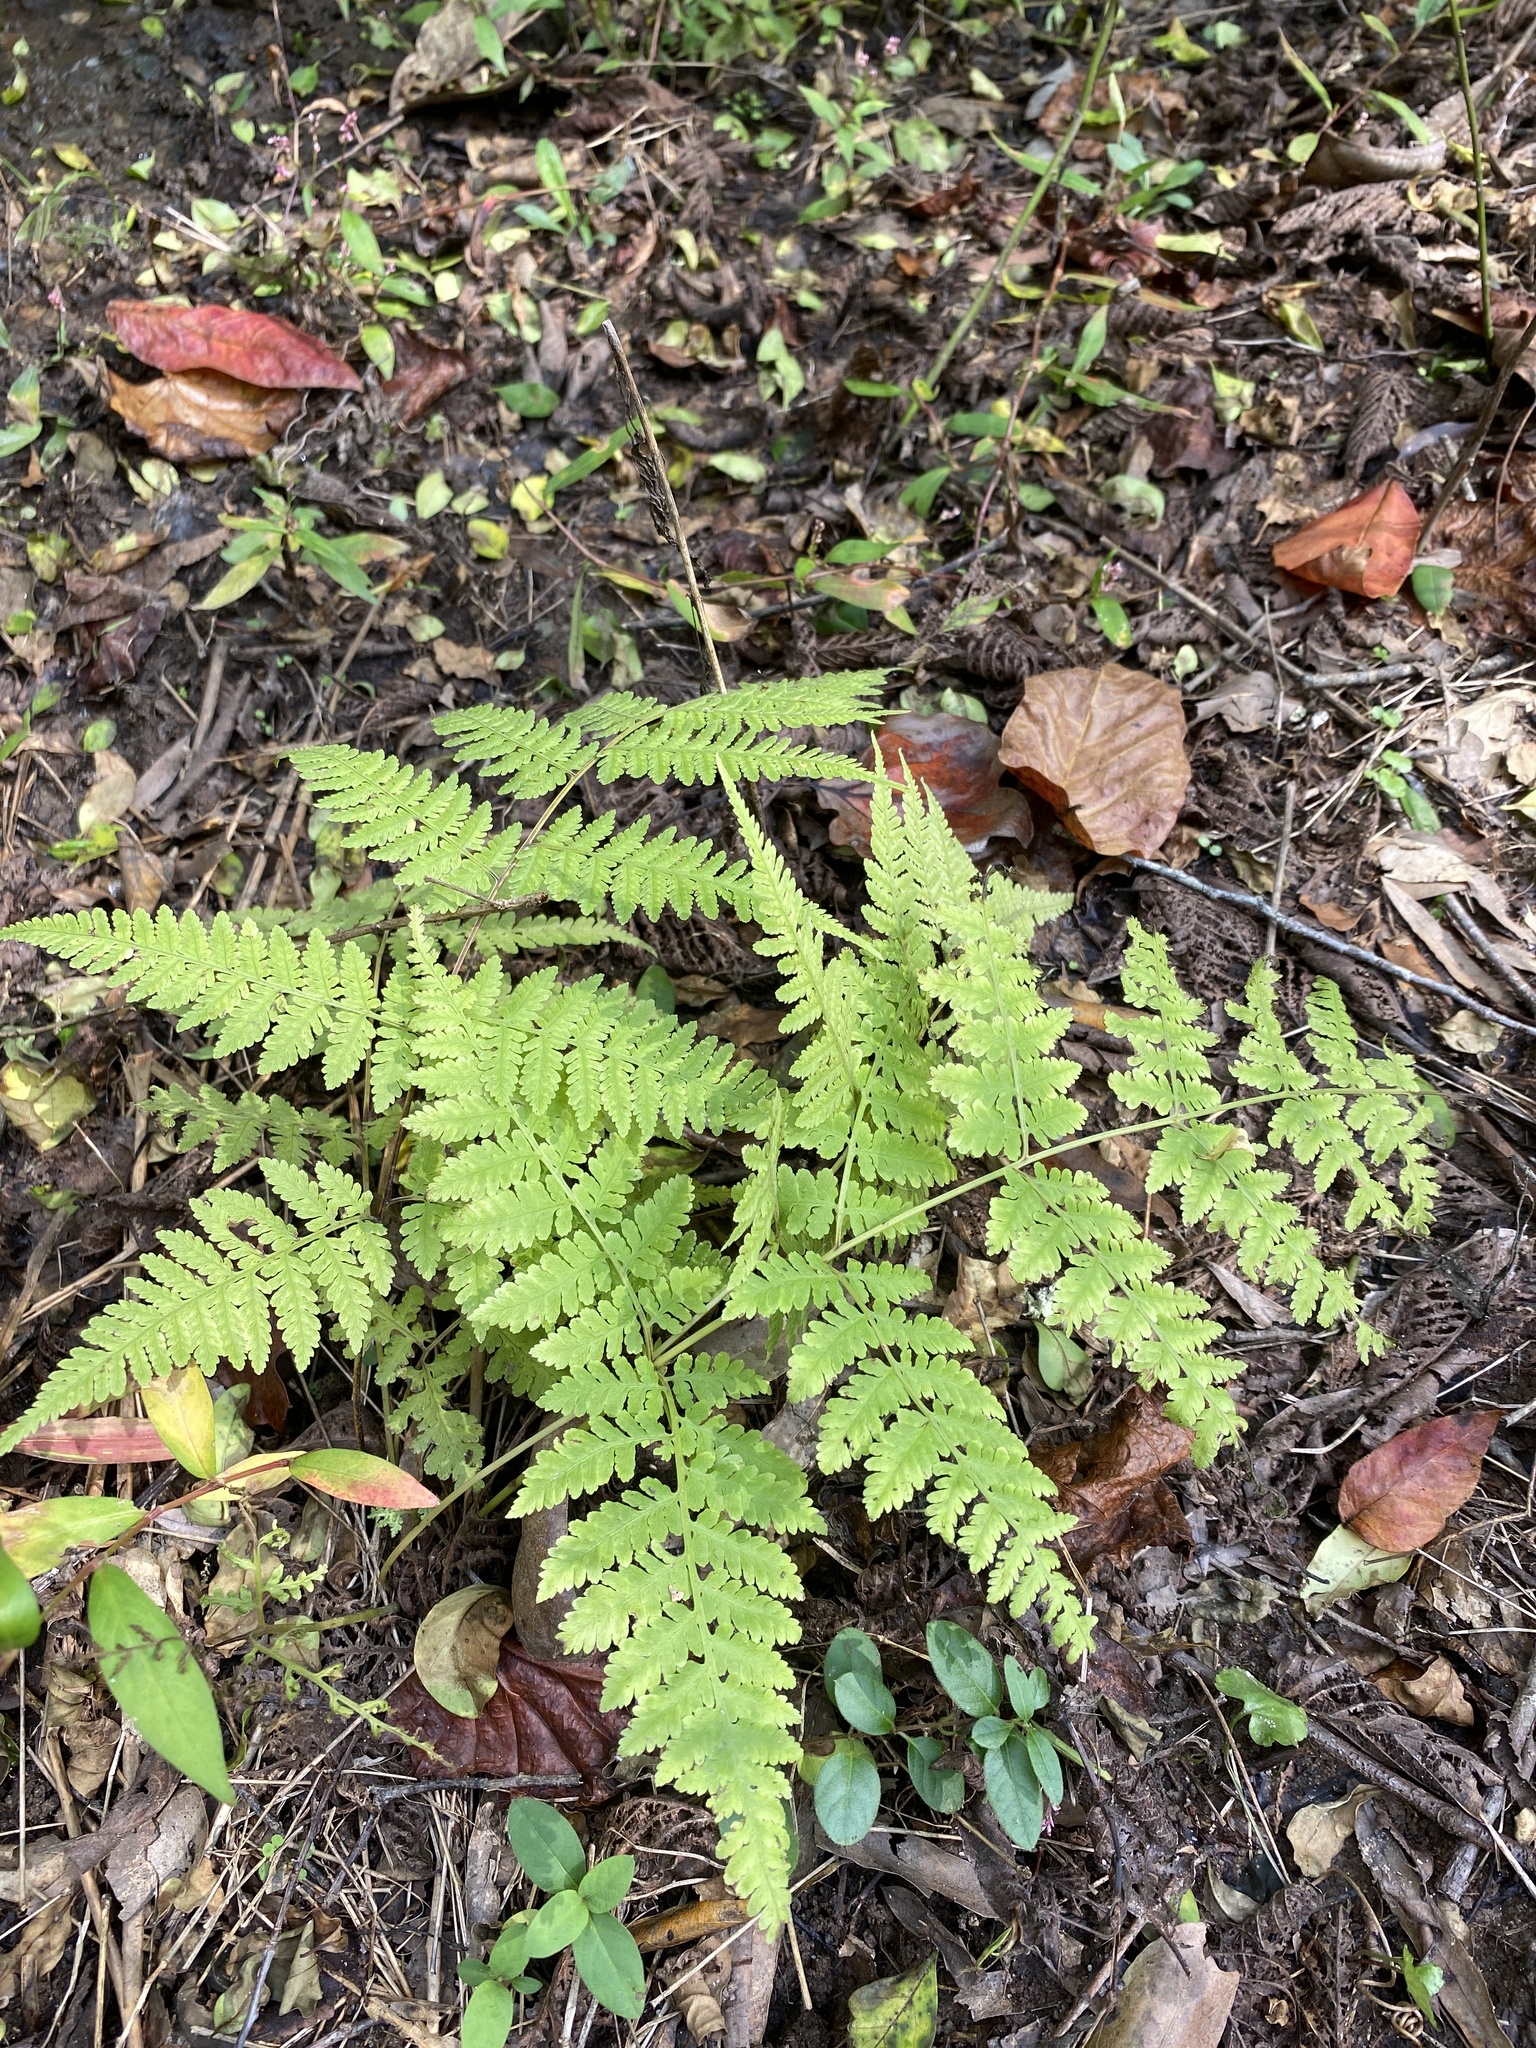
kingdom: Plantae
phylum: Tracheophyta
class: Polypodiopsida
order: Polypodiales
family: Thelypteridaceae
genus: Macrothelypteris
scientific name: Macrothelypteris torresiana
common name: Swordfern
